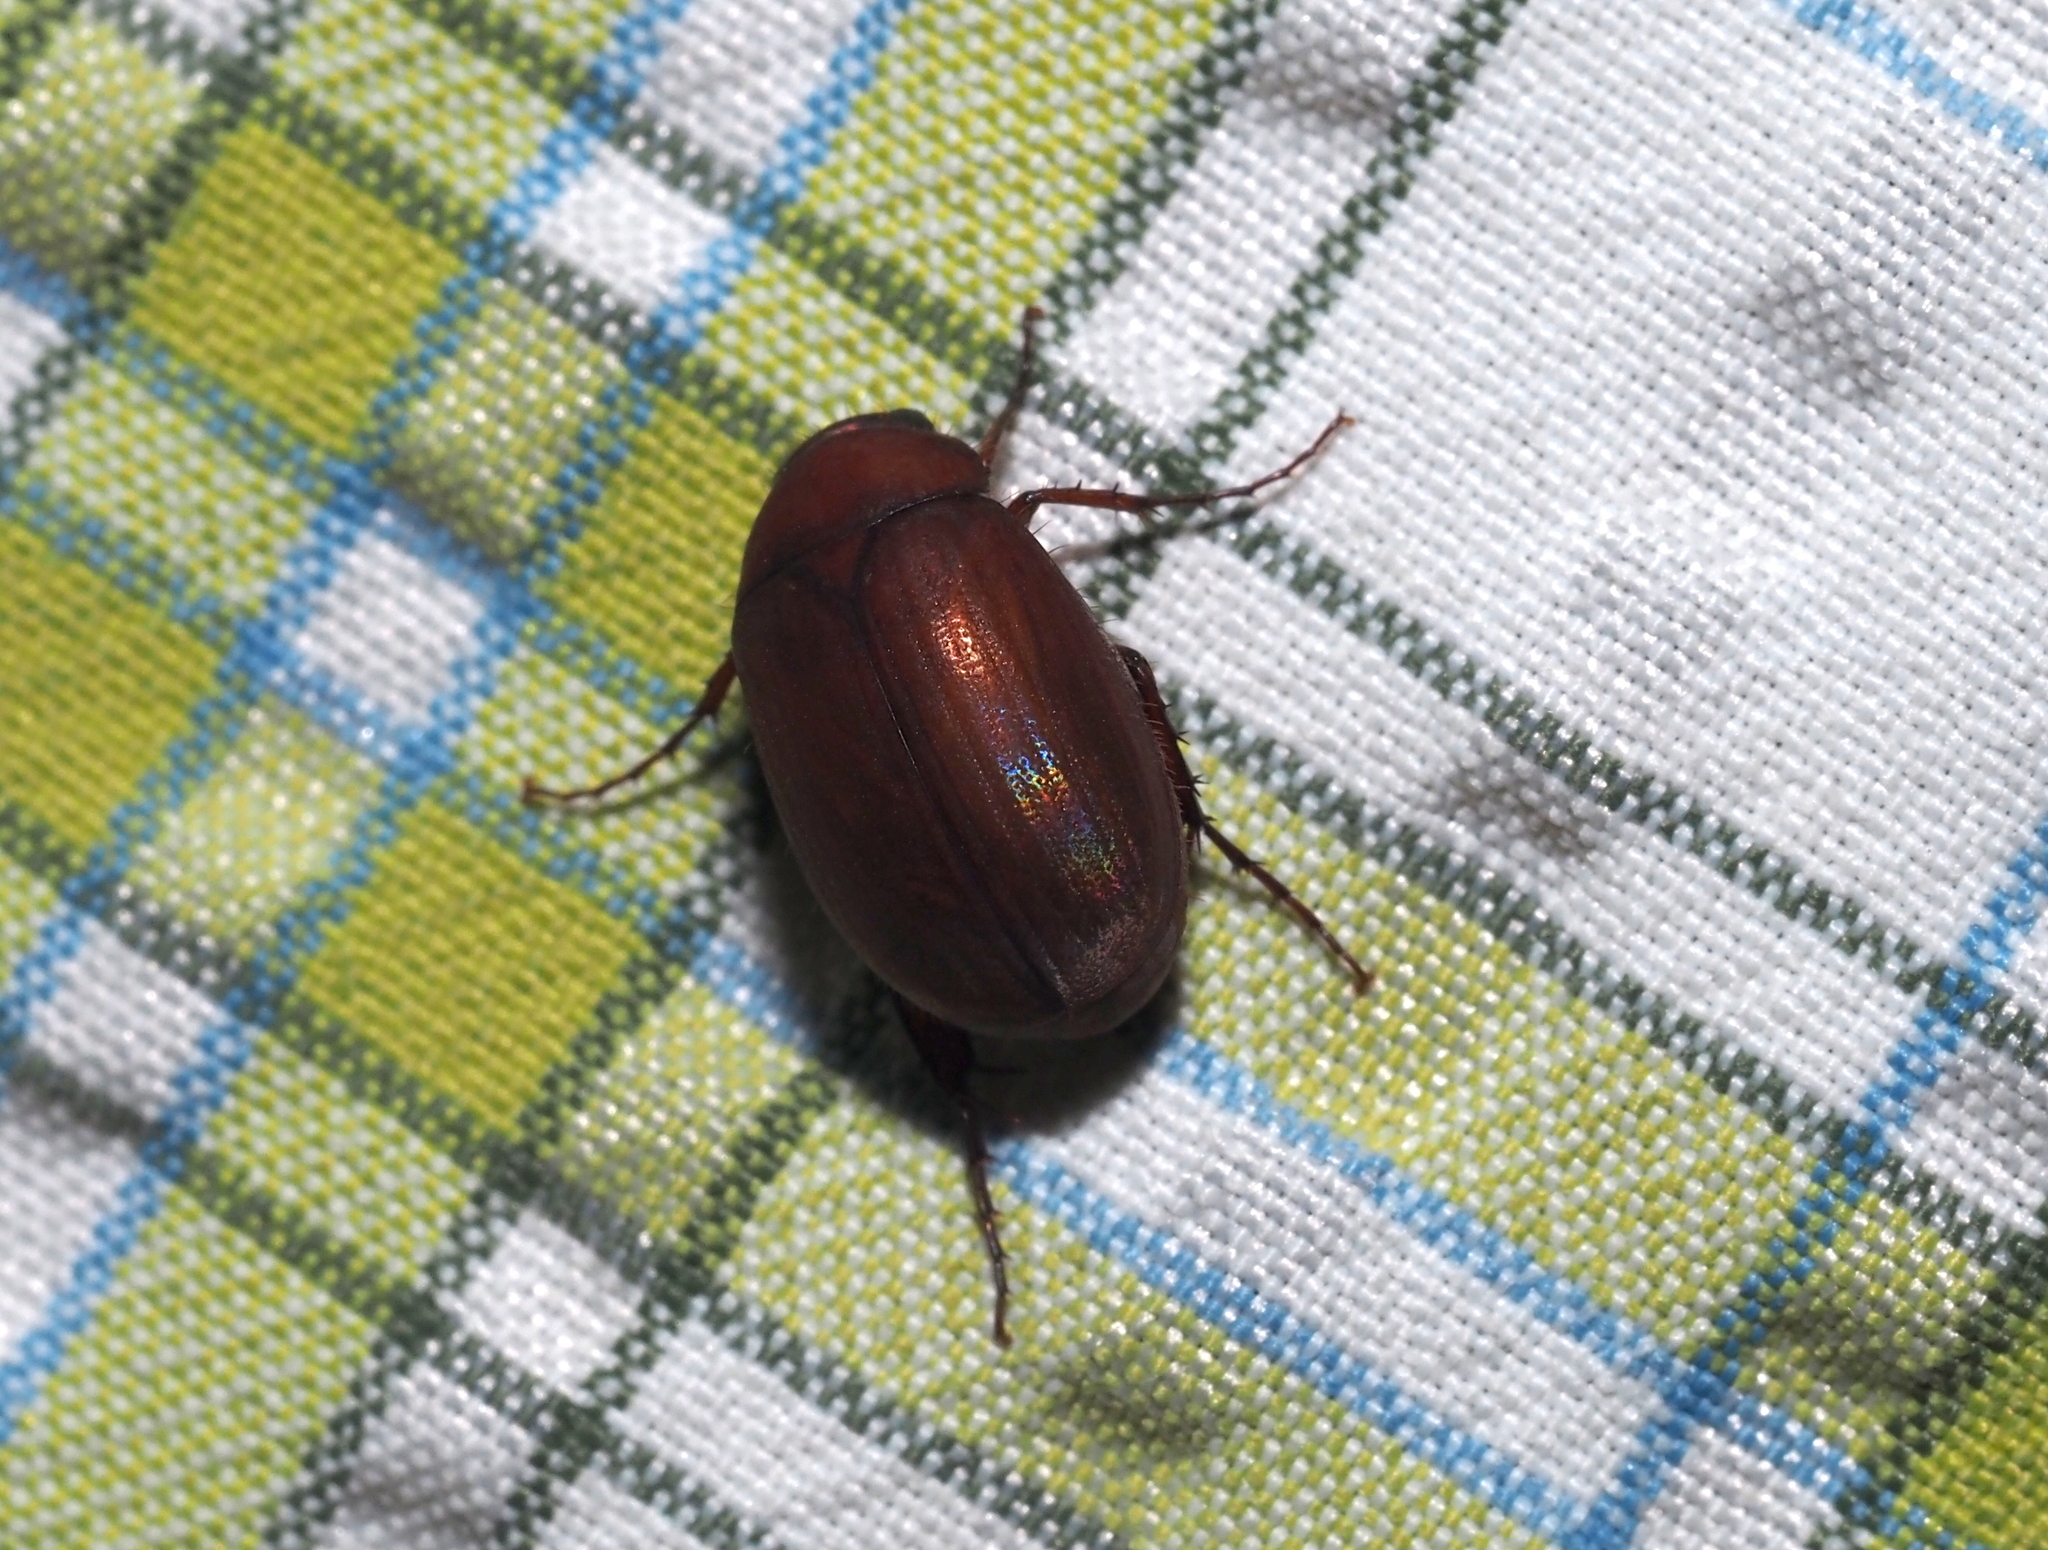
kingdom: Animalia
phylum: Arthropoda
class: Insecta
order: Coleoptera
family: Scarabaeidae
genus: Maladera
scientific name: Maladera formosae
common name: Asiatic garden beetle
